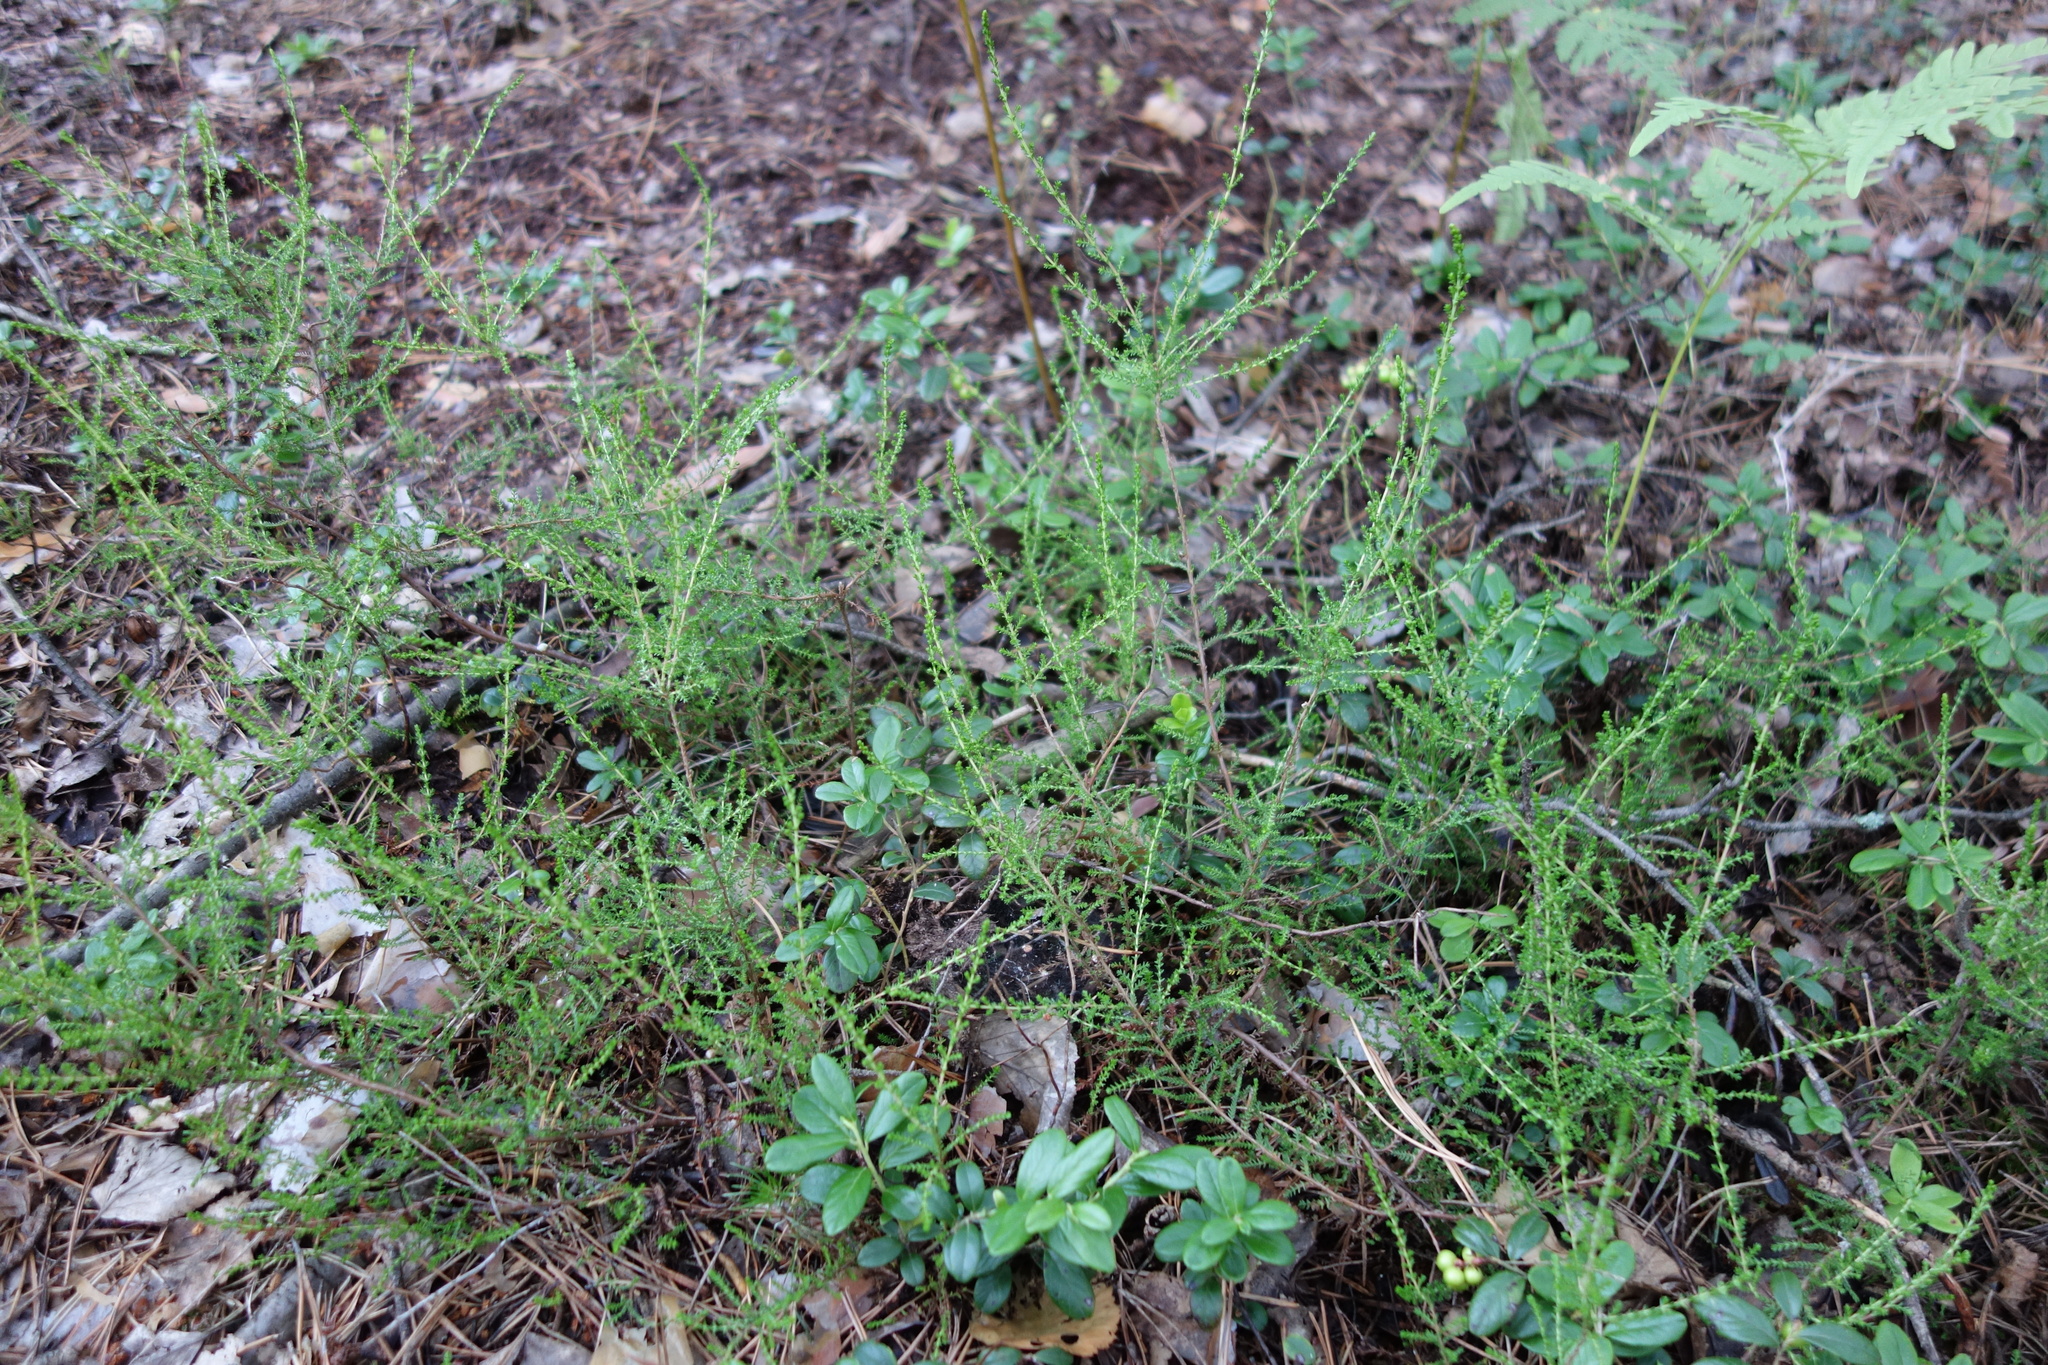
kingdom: Plantae
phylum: Tracheophyta
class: Magnoliopsida
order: Ericales
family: Ericaceae
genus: Calluna
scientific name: Calluna vulgaris
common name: Heather
